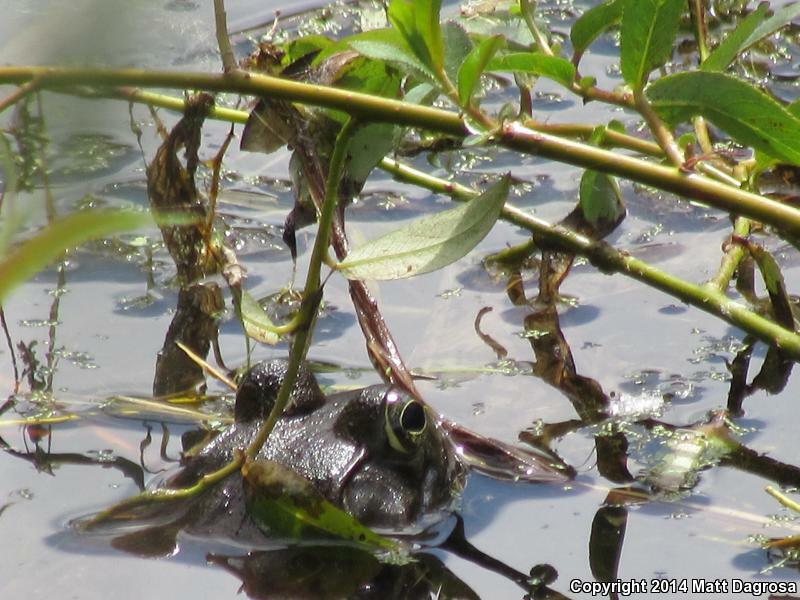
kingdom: Animalia
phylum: Chordata
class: Amphibia
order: Anura
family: Ranidae
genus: Lithobates
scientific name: Lithobates catesbeianus
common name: American bullfrog
